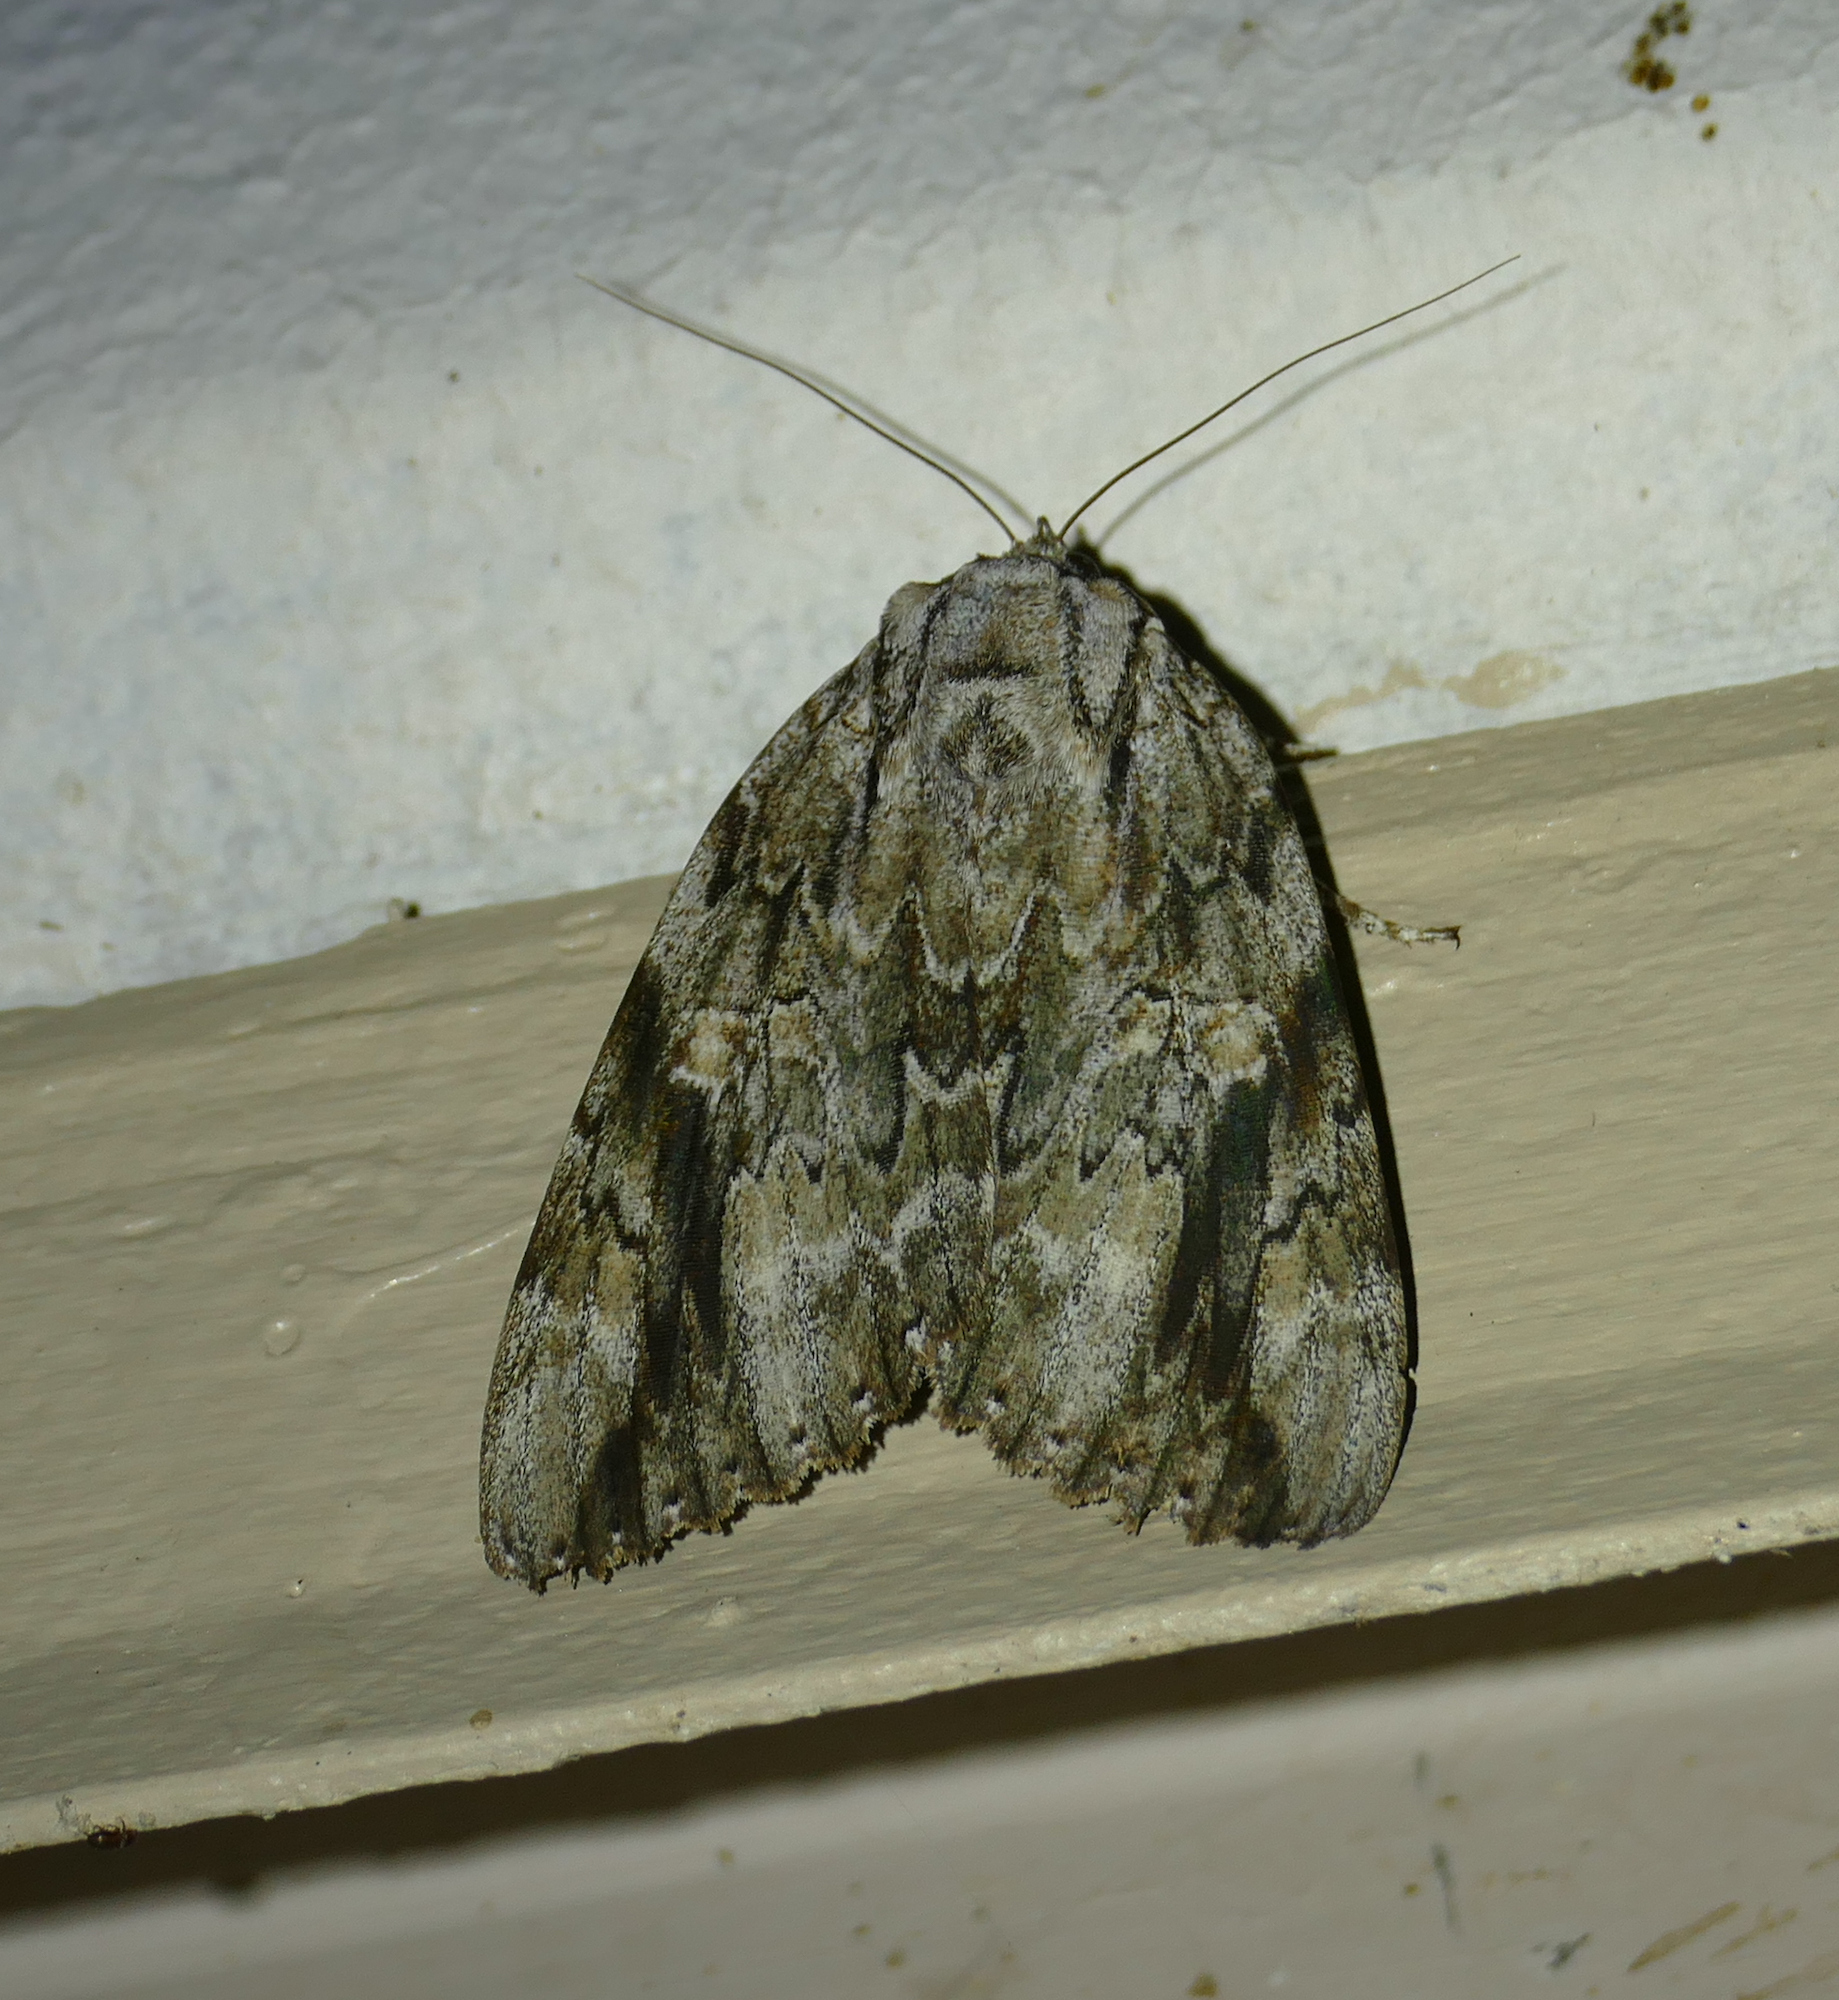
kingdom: Animalia
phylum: Arthropoda
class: Insecta
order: Lepidoptera
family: Erebidae
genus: Catocala
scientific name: Catocala maestosa
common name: Sad underwing
